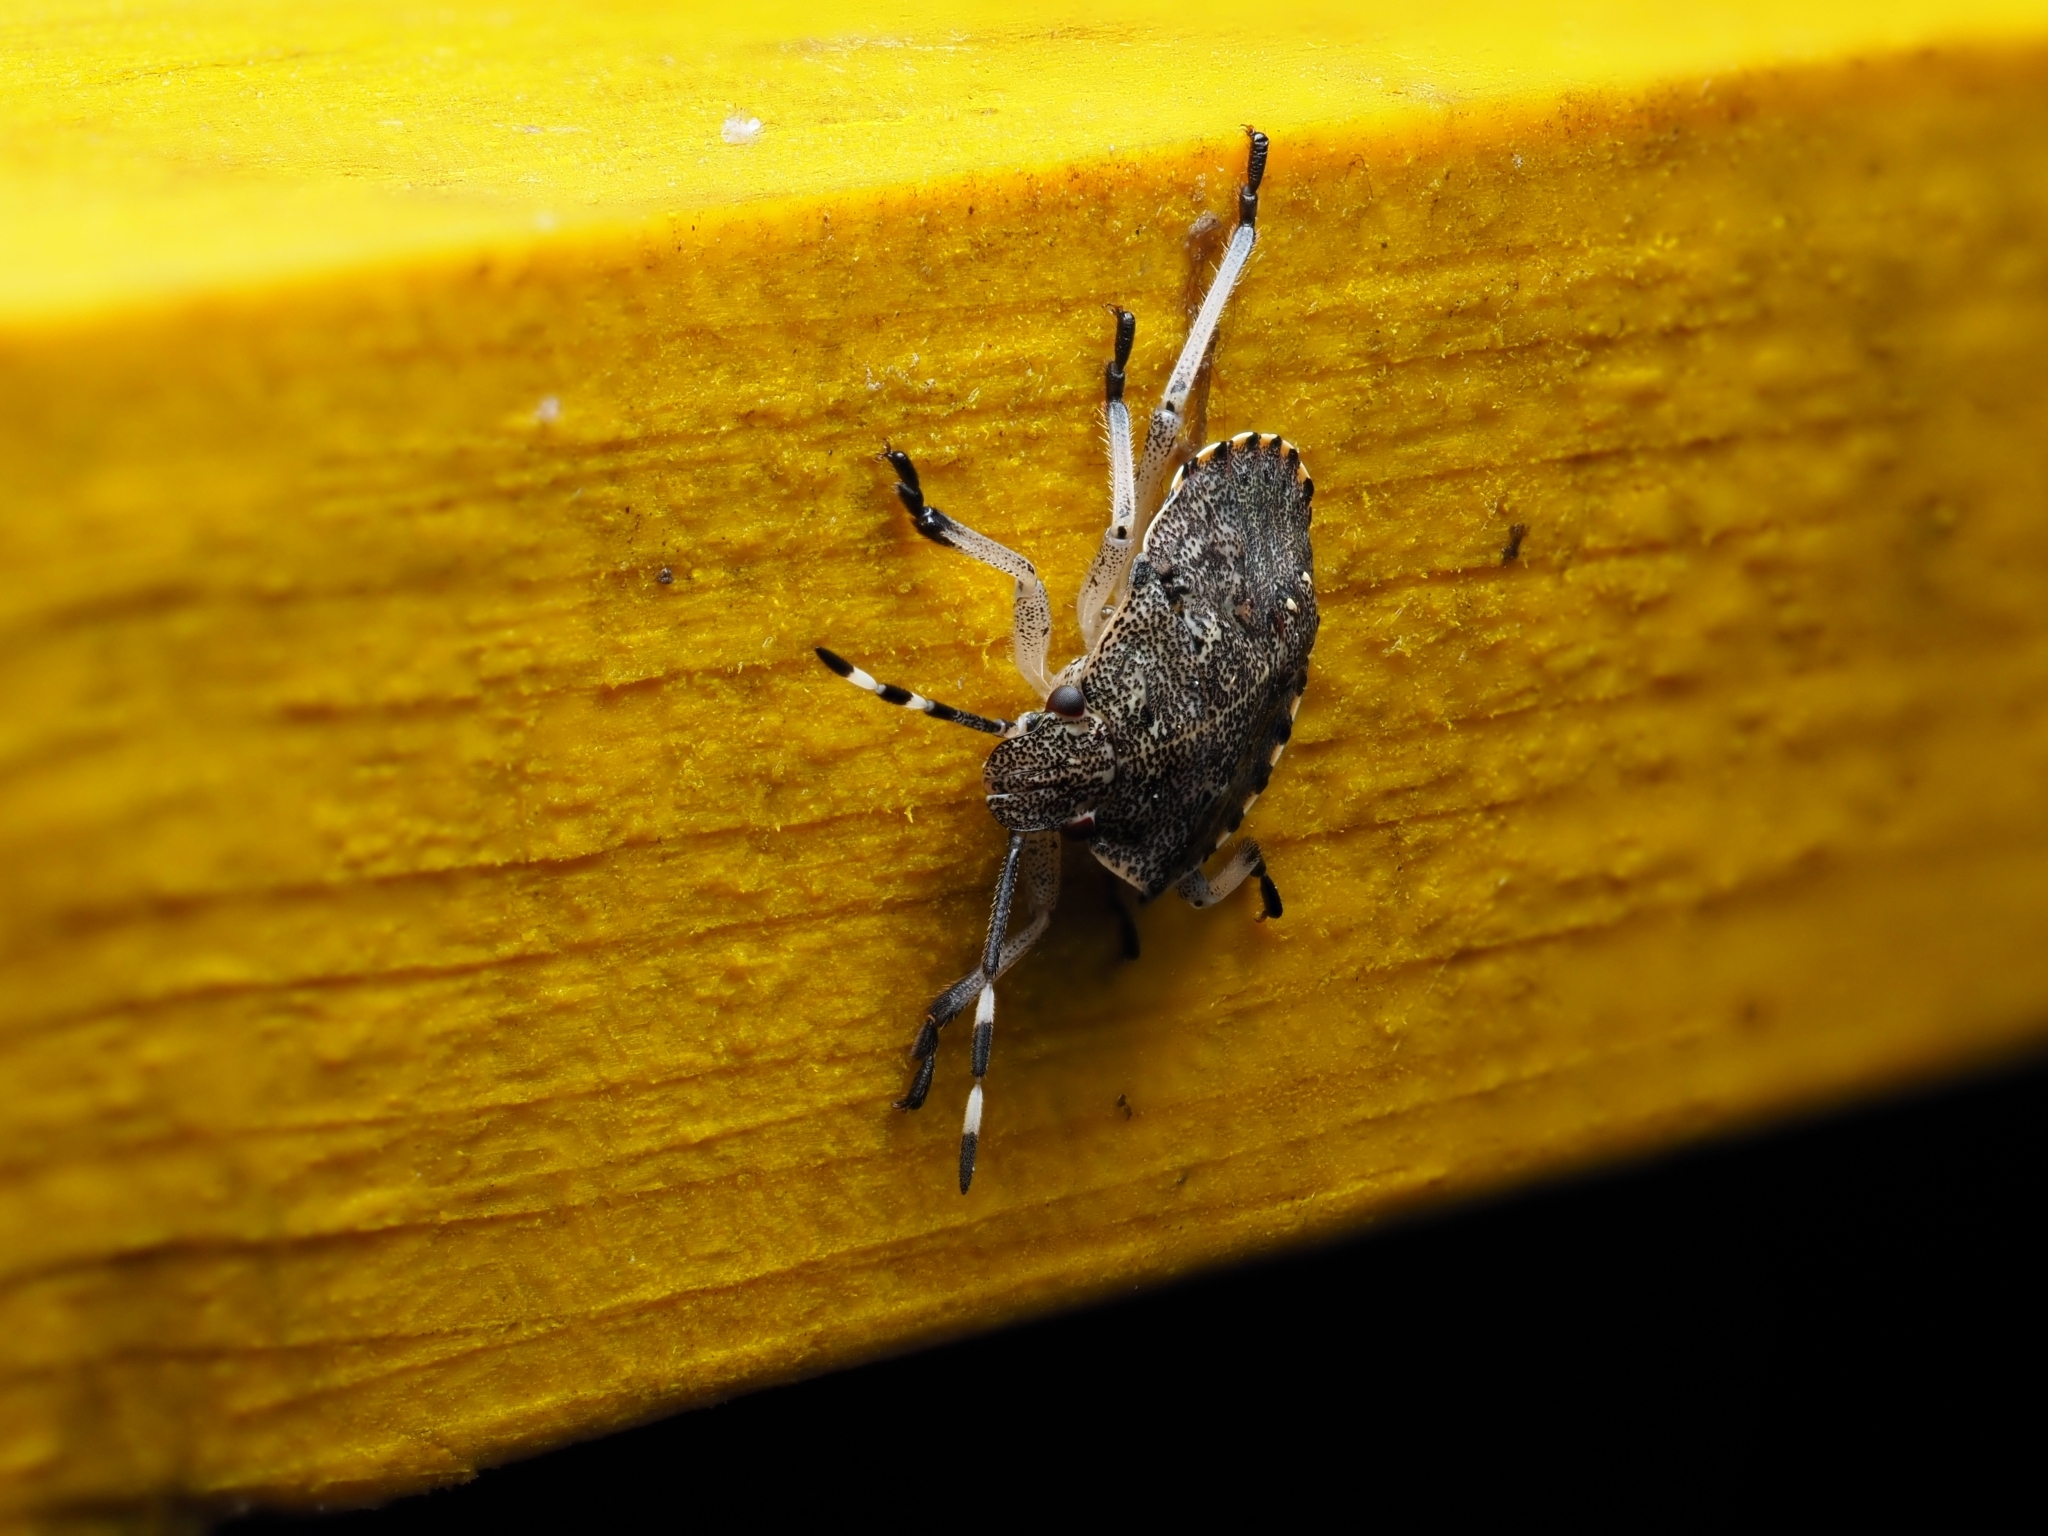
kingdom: Animalia
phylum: Arthropoda
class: Insecta
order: Hemiptera
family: Pentatomidae
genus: Rhaphigaster
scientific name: Rhaphigaster nebulosa
